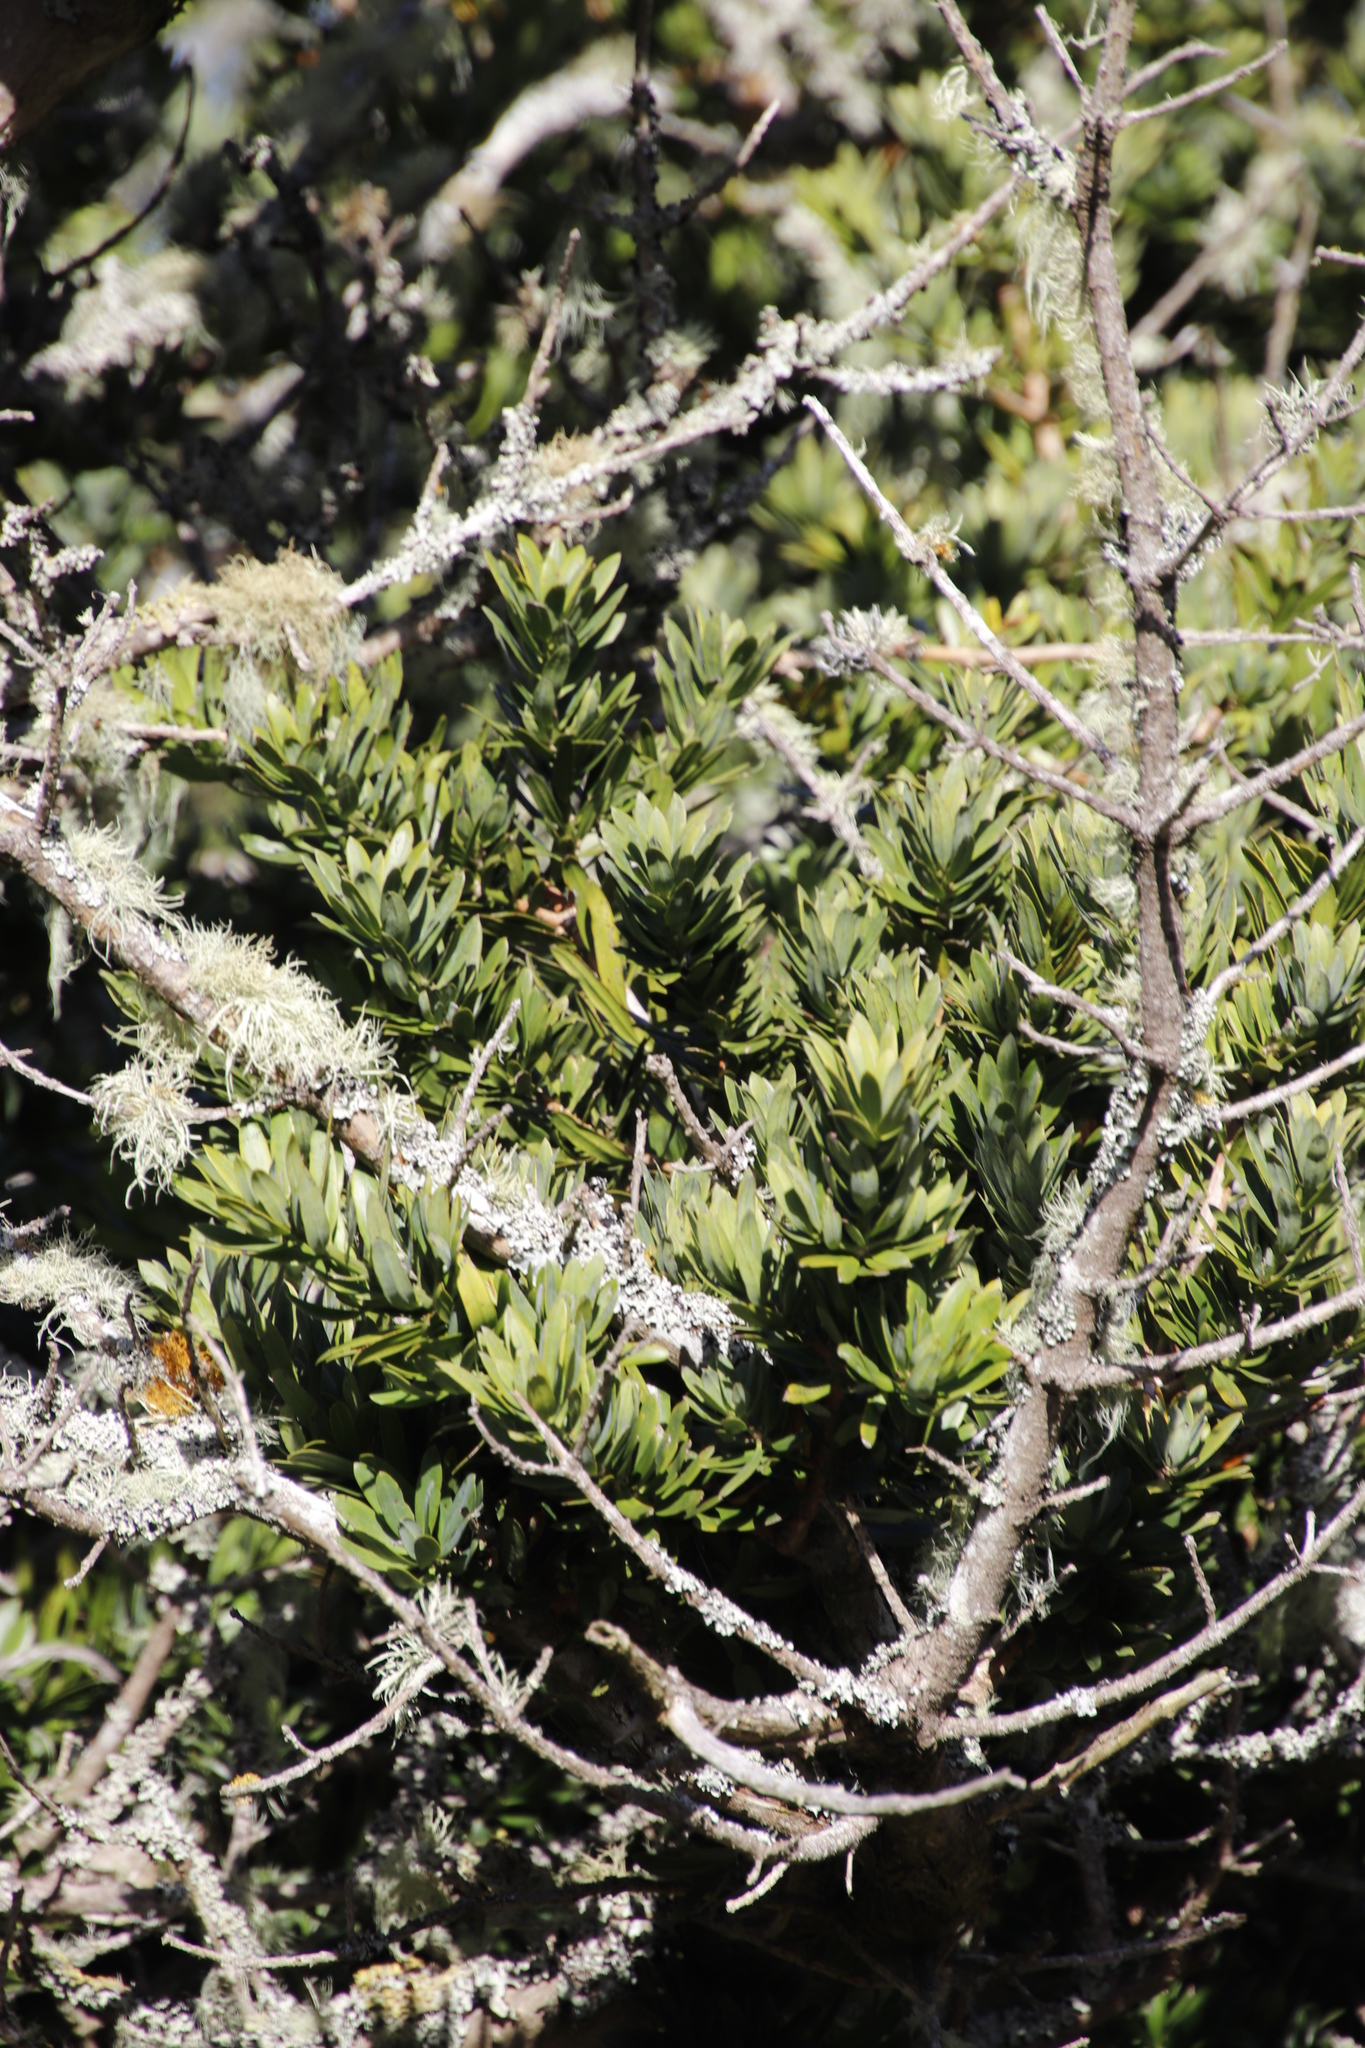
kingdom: Plantae
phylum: Tracheophyta
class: Pinopsida
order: Pinales
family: Podocarpaceae
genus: Podocarpus
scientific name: Podocarpus latifolius
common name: True yellowwood
